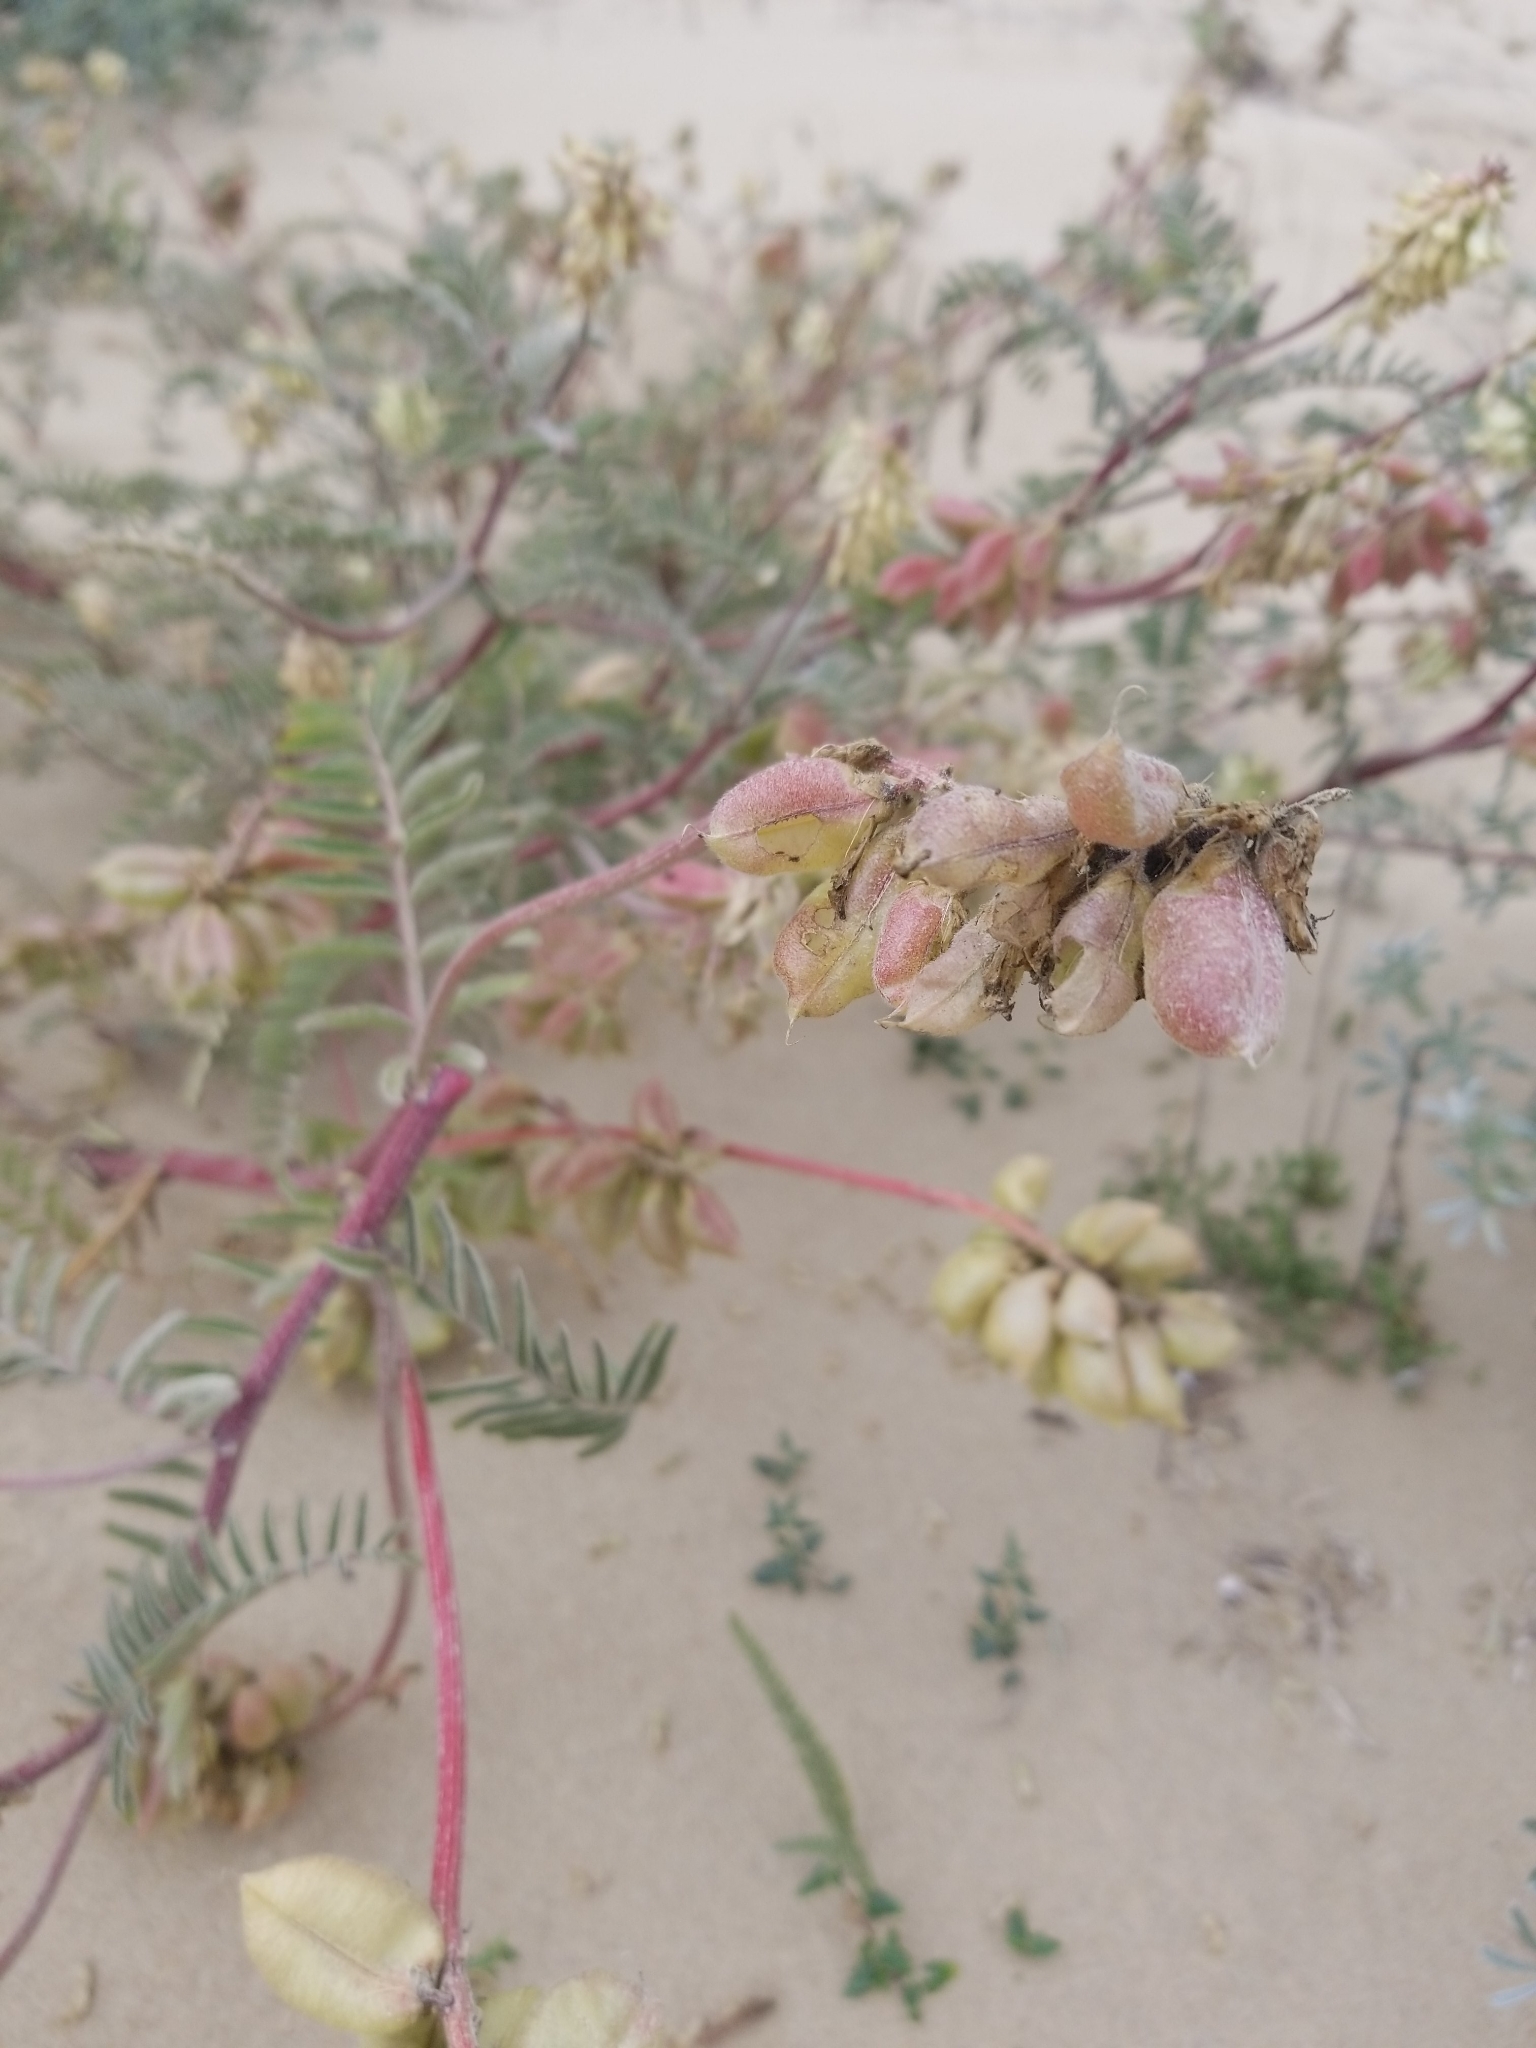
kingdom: Plantae
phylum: Tracheophyta
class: Magnoliopsida
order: Fabales
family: Fabaceae
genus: Astragalus
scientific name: Astragalus nuttallii
